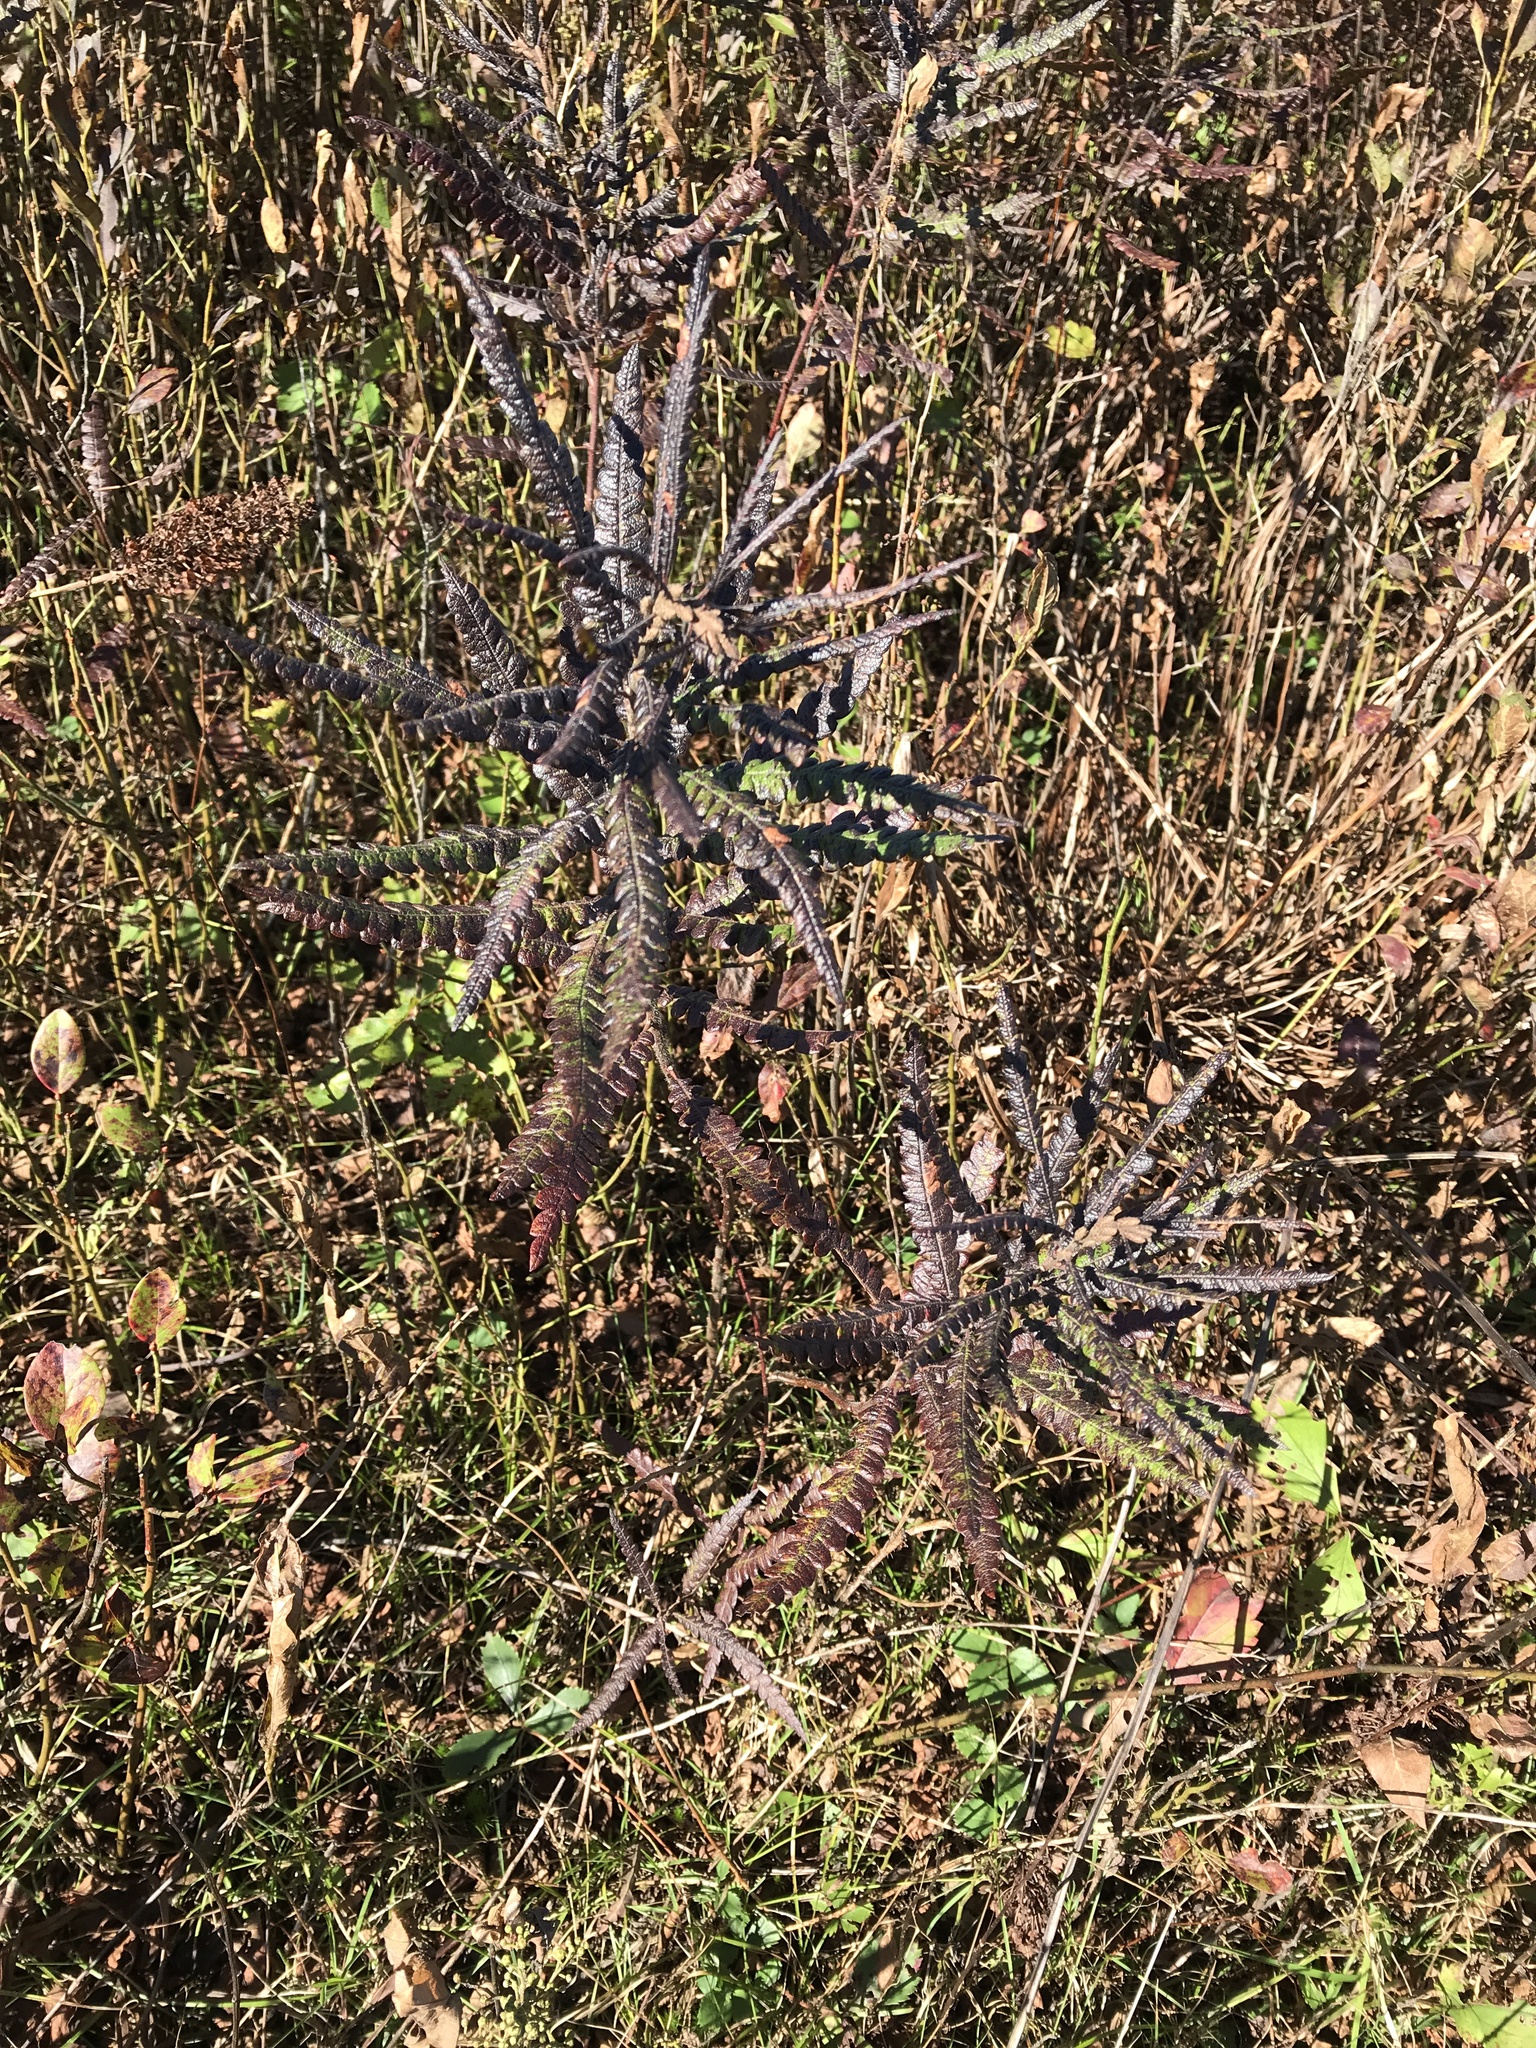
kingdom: Plantae
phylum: Tracheophyta
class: Magnoliopsida
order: Fagales
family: Myricaceae
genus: Comptonia
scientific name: Comptonia peregrina
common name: Sweet-fern
